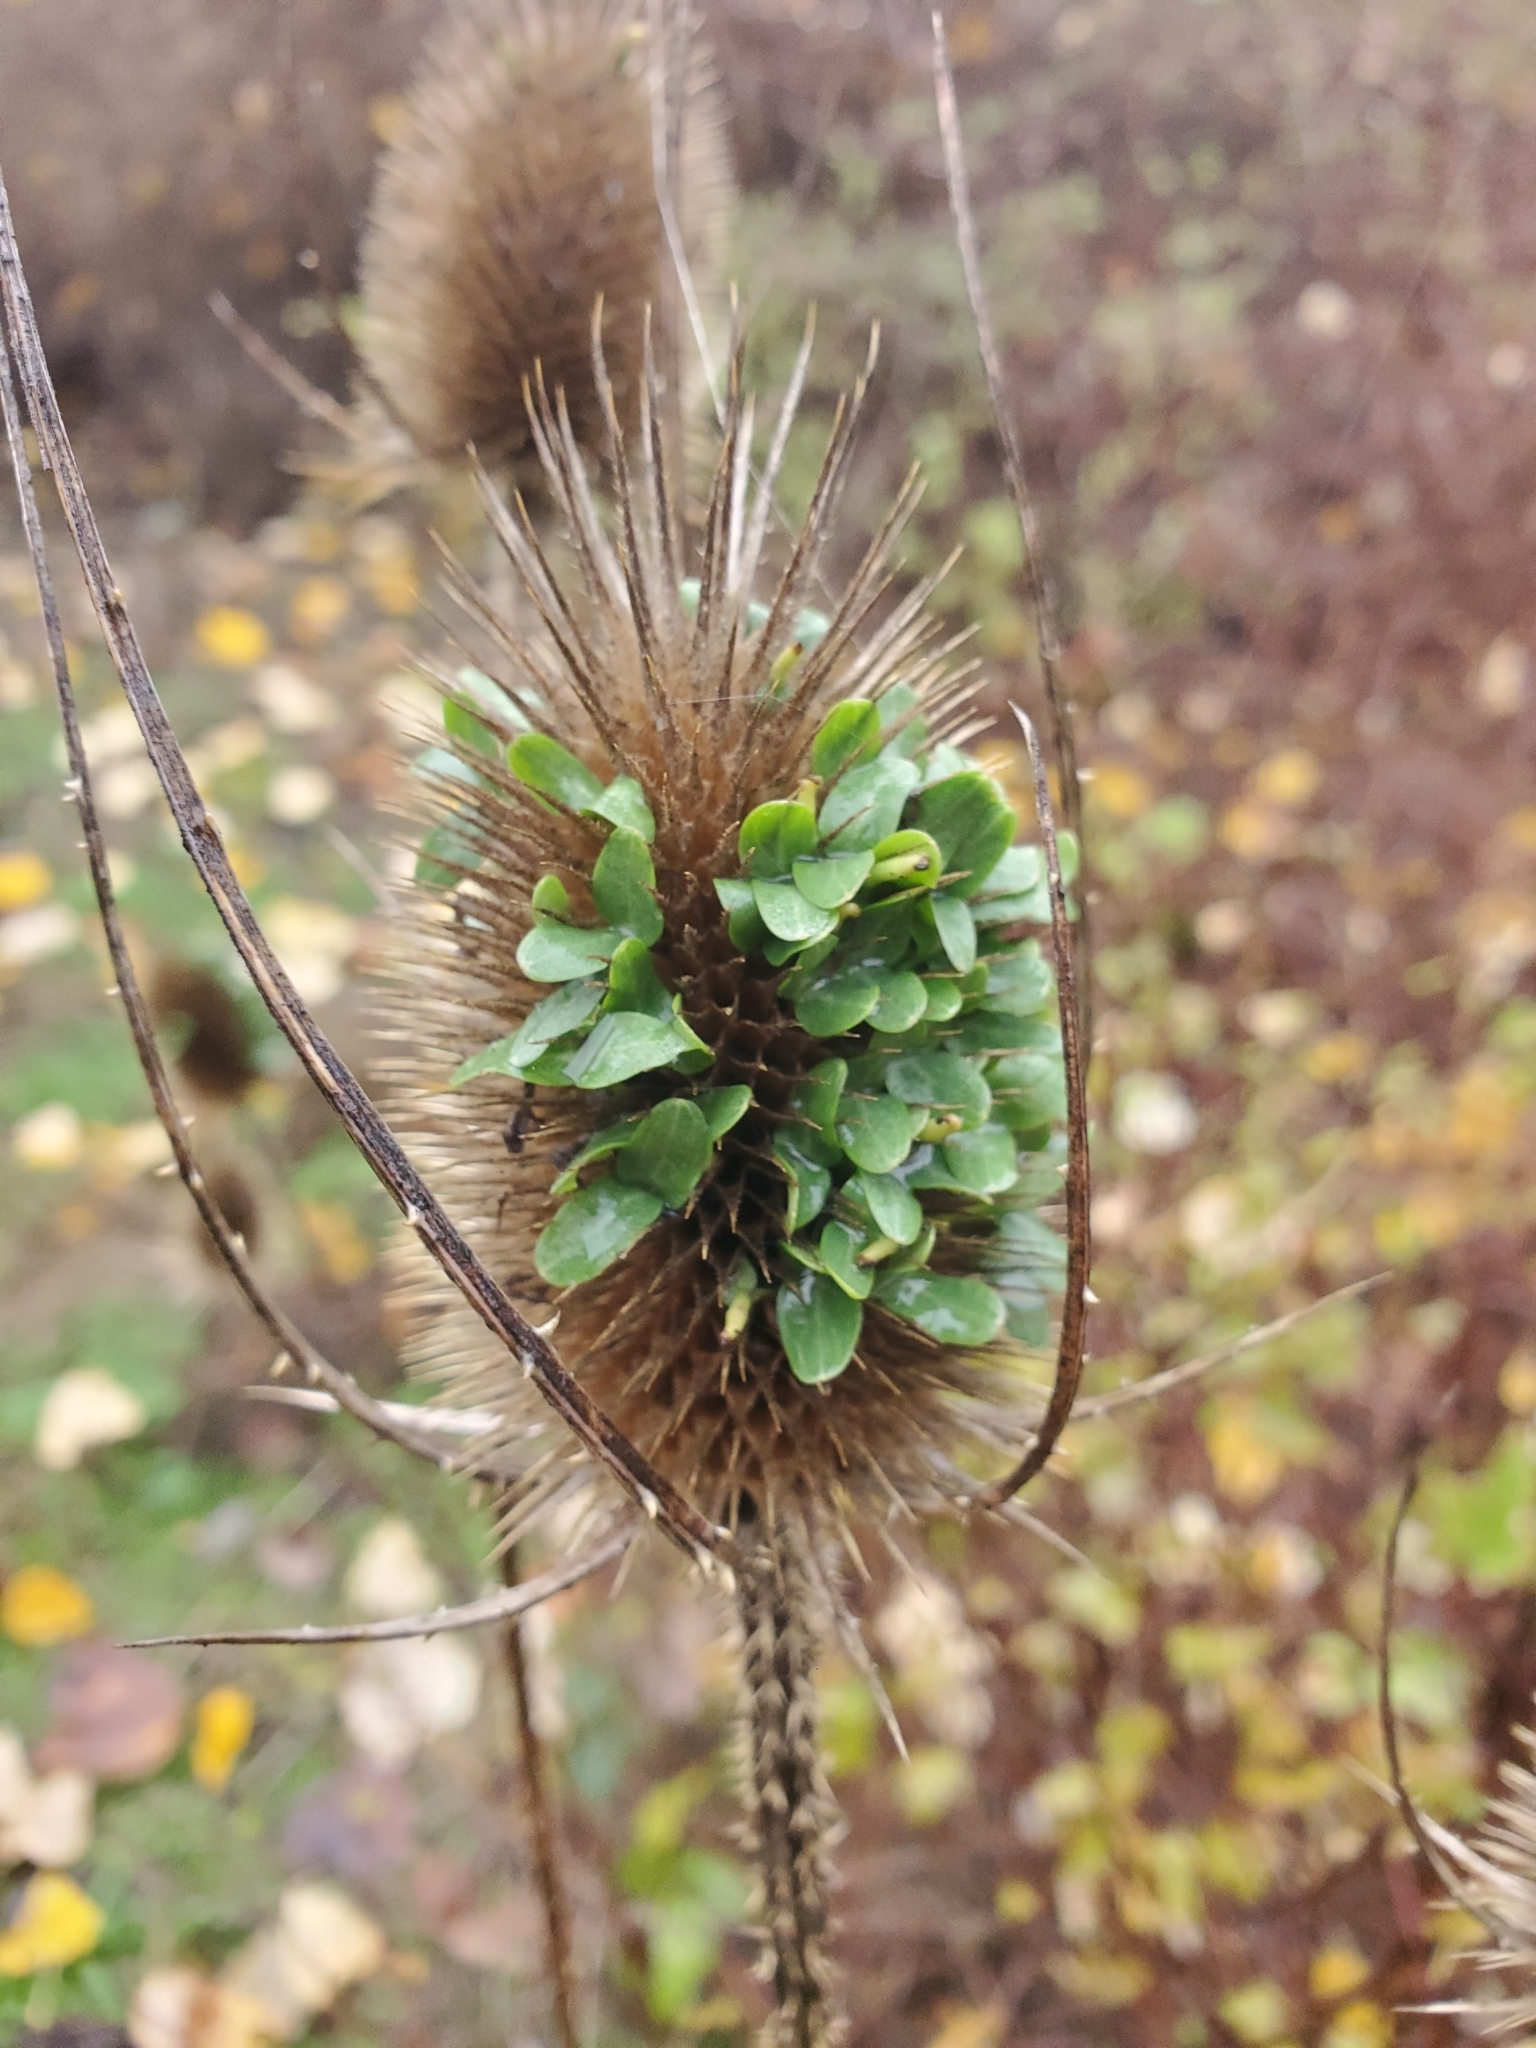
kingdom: Plantae
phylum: Tracheophyta
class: Magnoliopsida
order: Dipsacales
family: Caprifoliaceae
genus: Dipsacus
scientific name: Dipsacus fullonum
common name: Teasel
